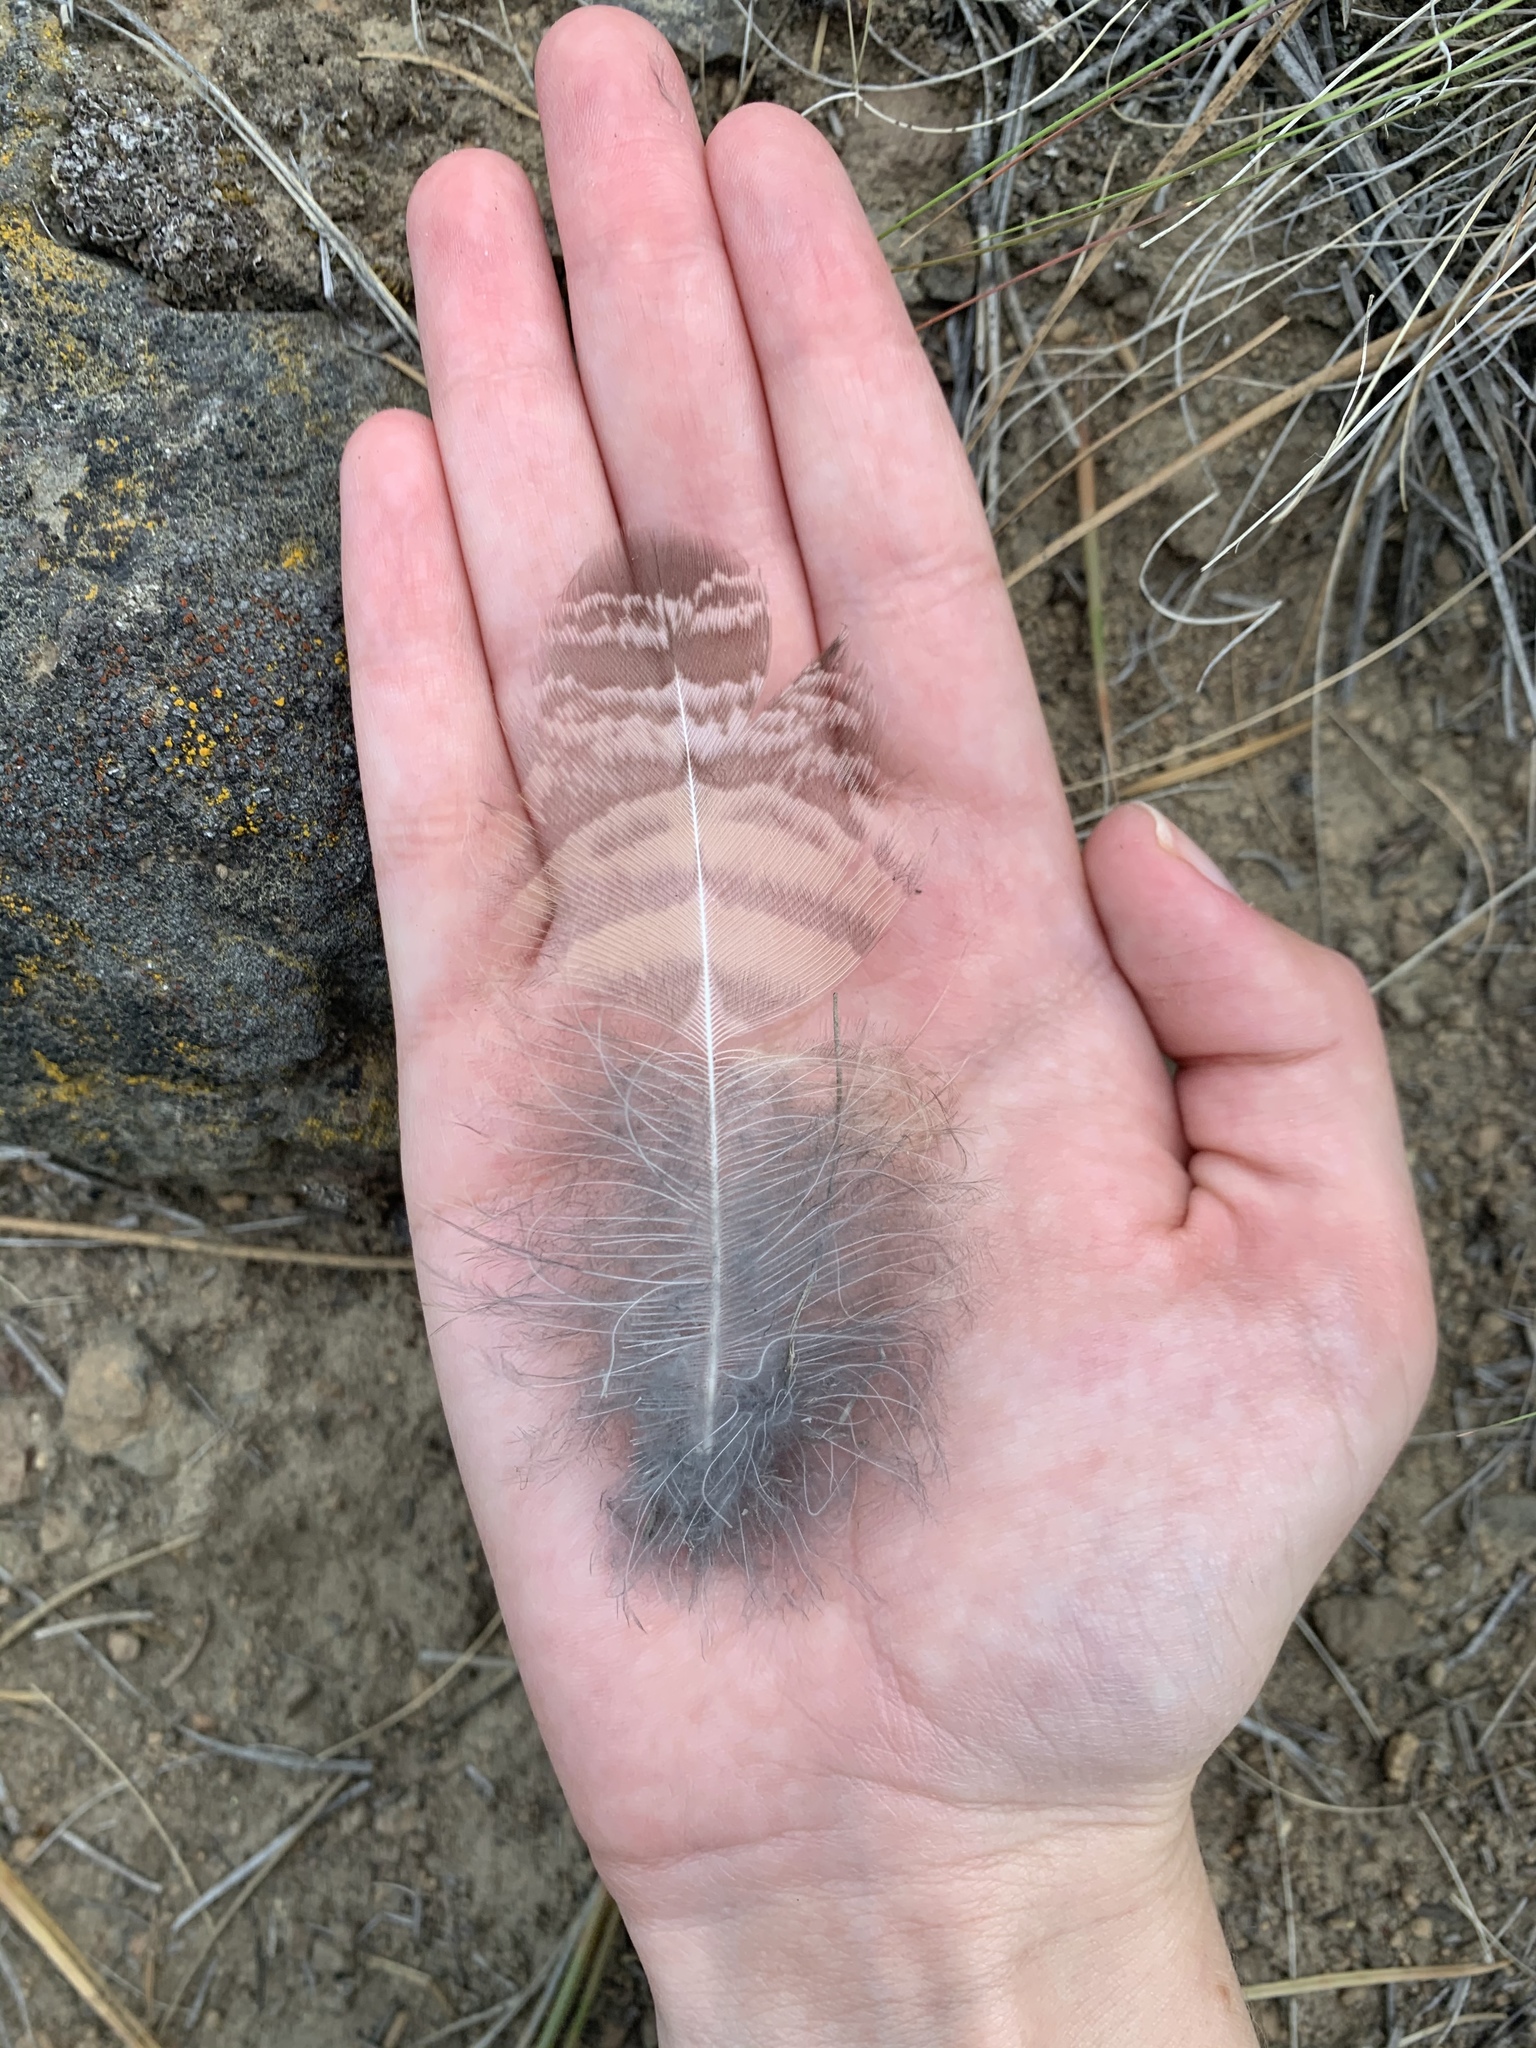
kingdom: Animalia
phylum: Chordata
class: Aves
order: Strigiformes
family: Strigidae
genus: Bubo
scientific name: Bubo virginianus
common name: Great horned owl
